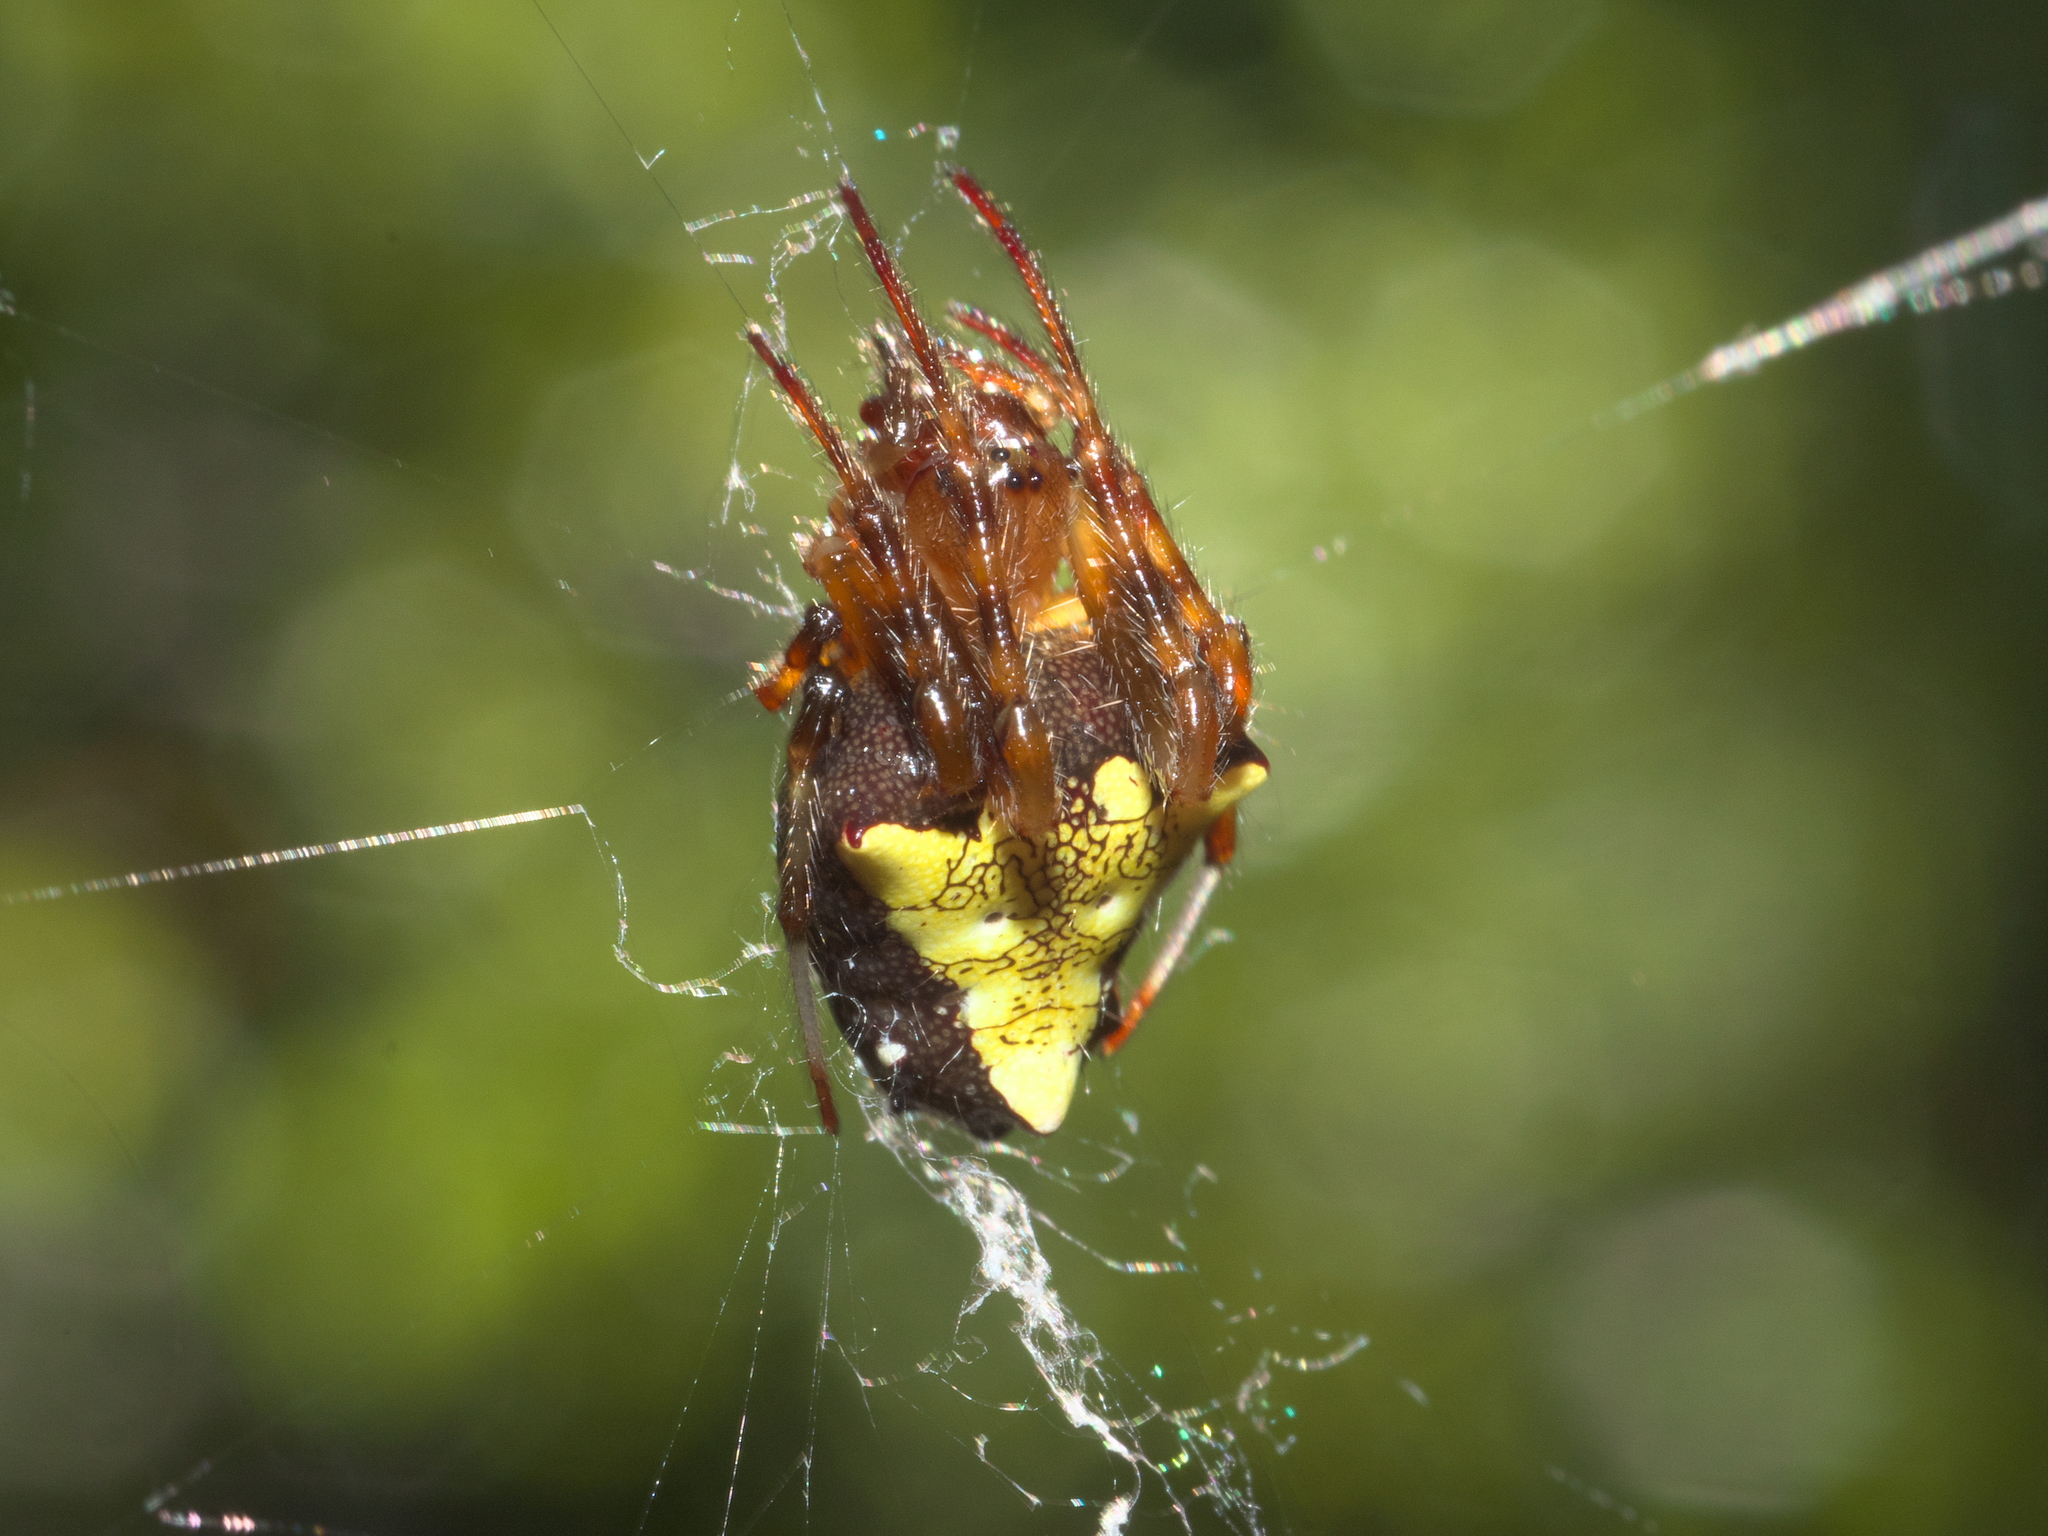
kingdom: Animalia
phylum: Arthropoda
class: Arachnida
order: Araneae
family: Araneidae
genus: Verrucosa
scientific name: Verrucosa arenata
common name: Orb weavers
